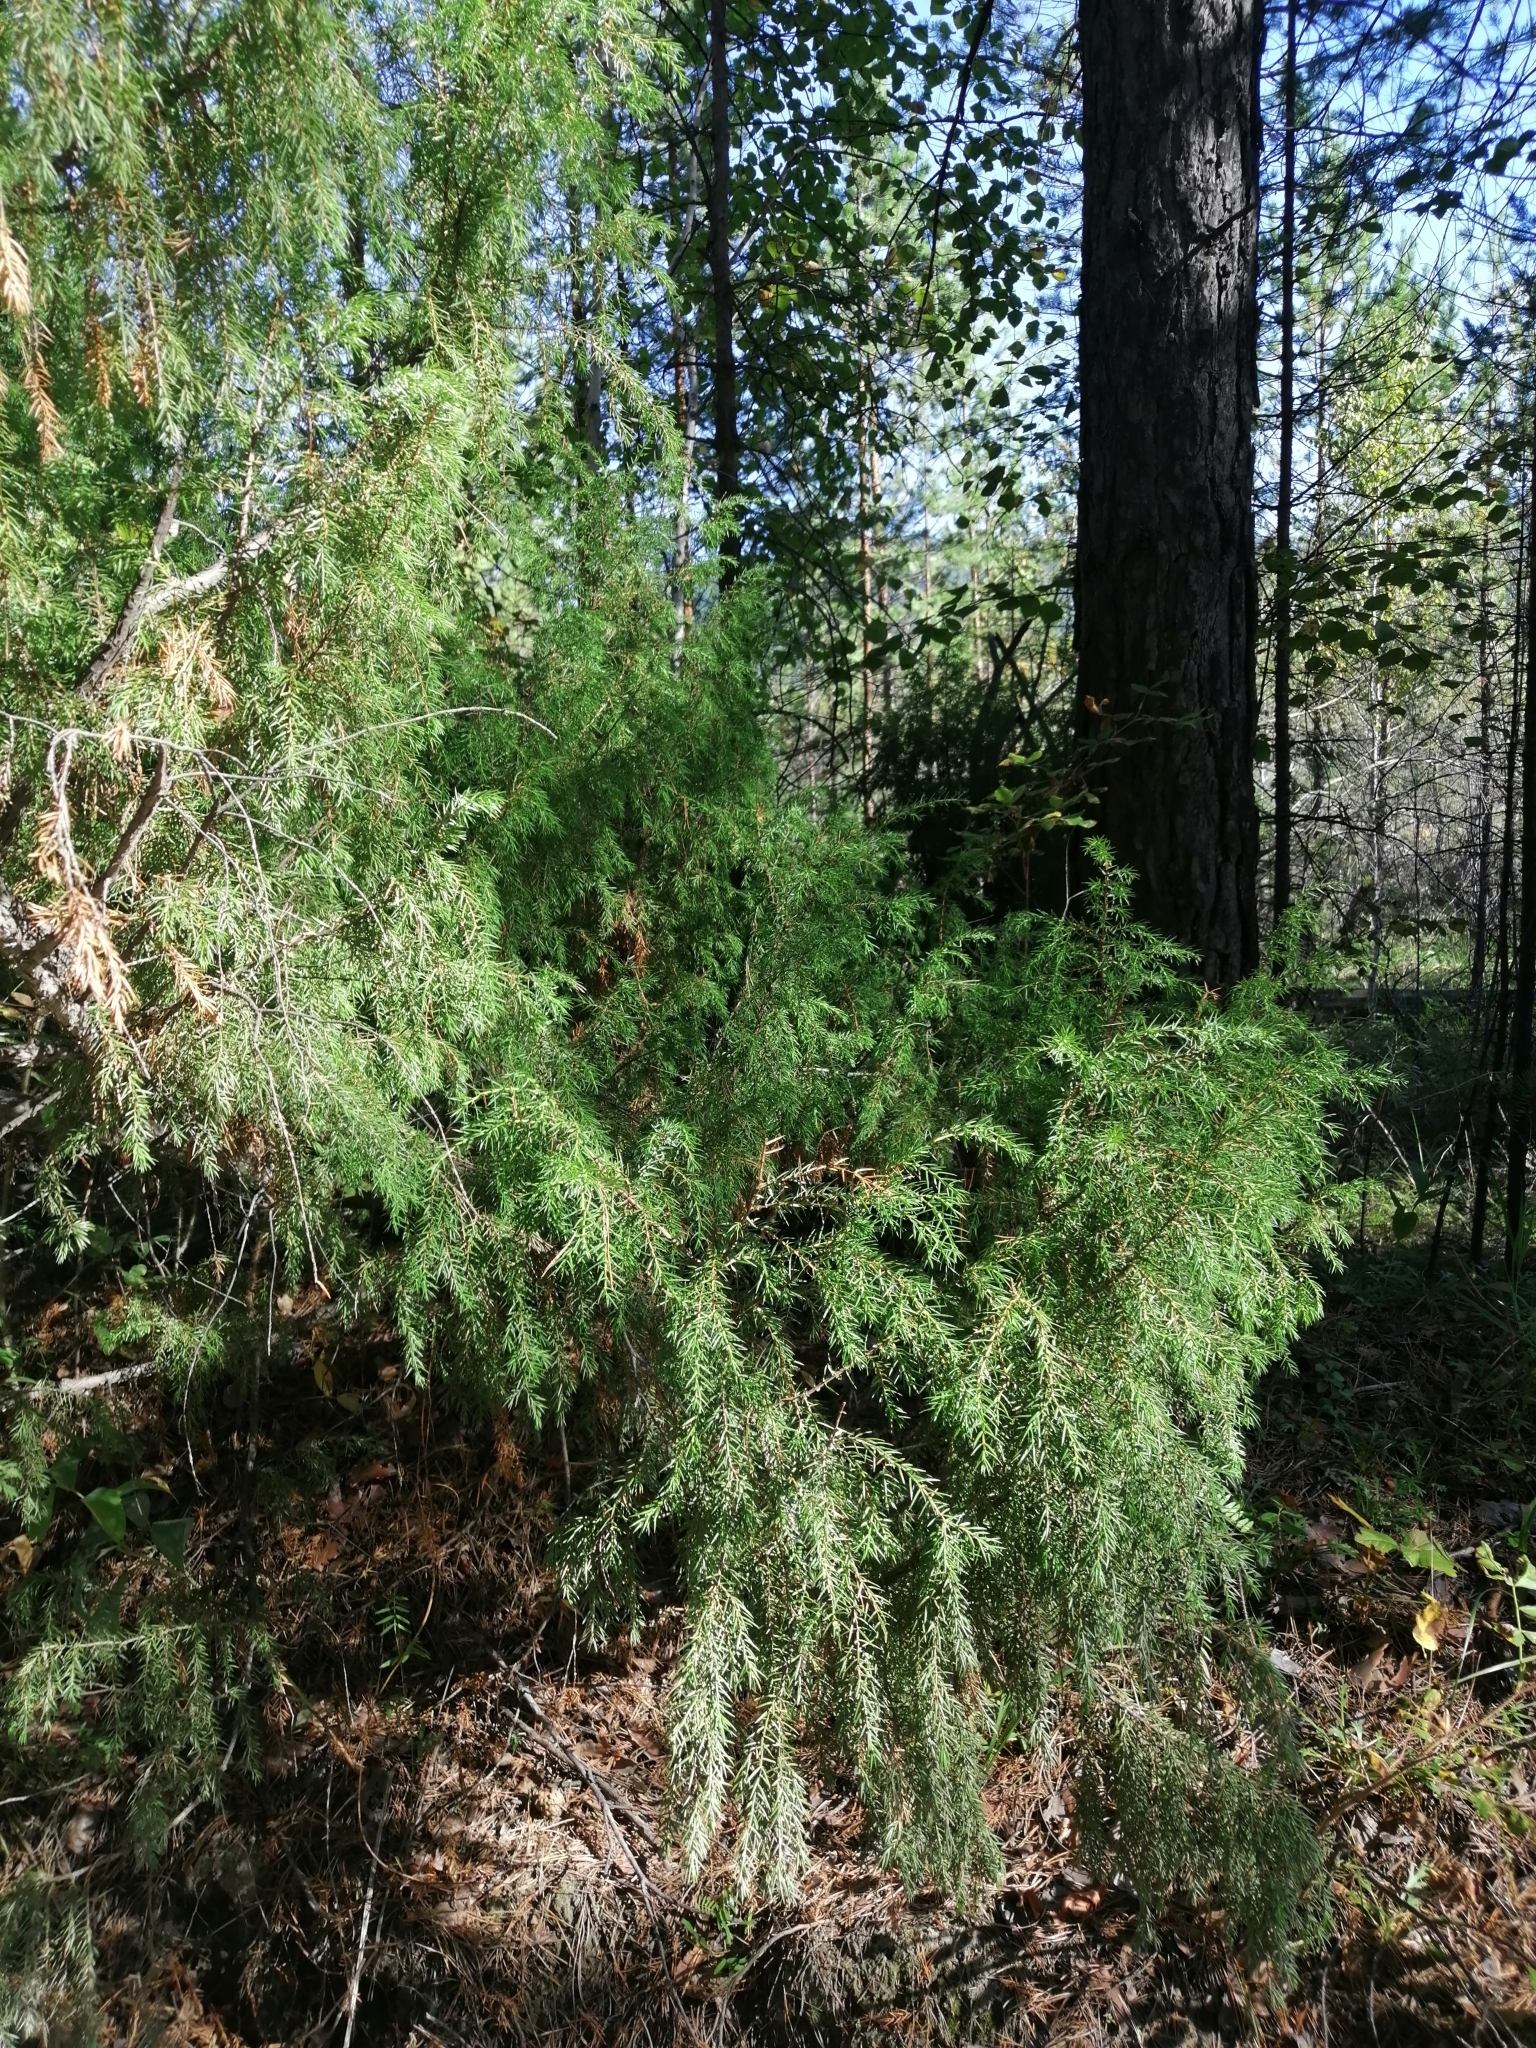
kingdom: Plantae
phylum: Tracheophyta
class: Pinopsida
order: Pinales
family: Cupressaceae
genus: Juniperus
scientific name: Juniperus communis
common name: Common juniper
